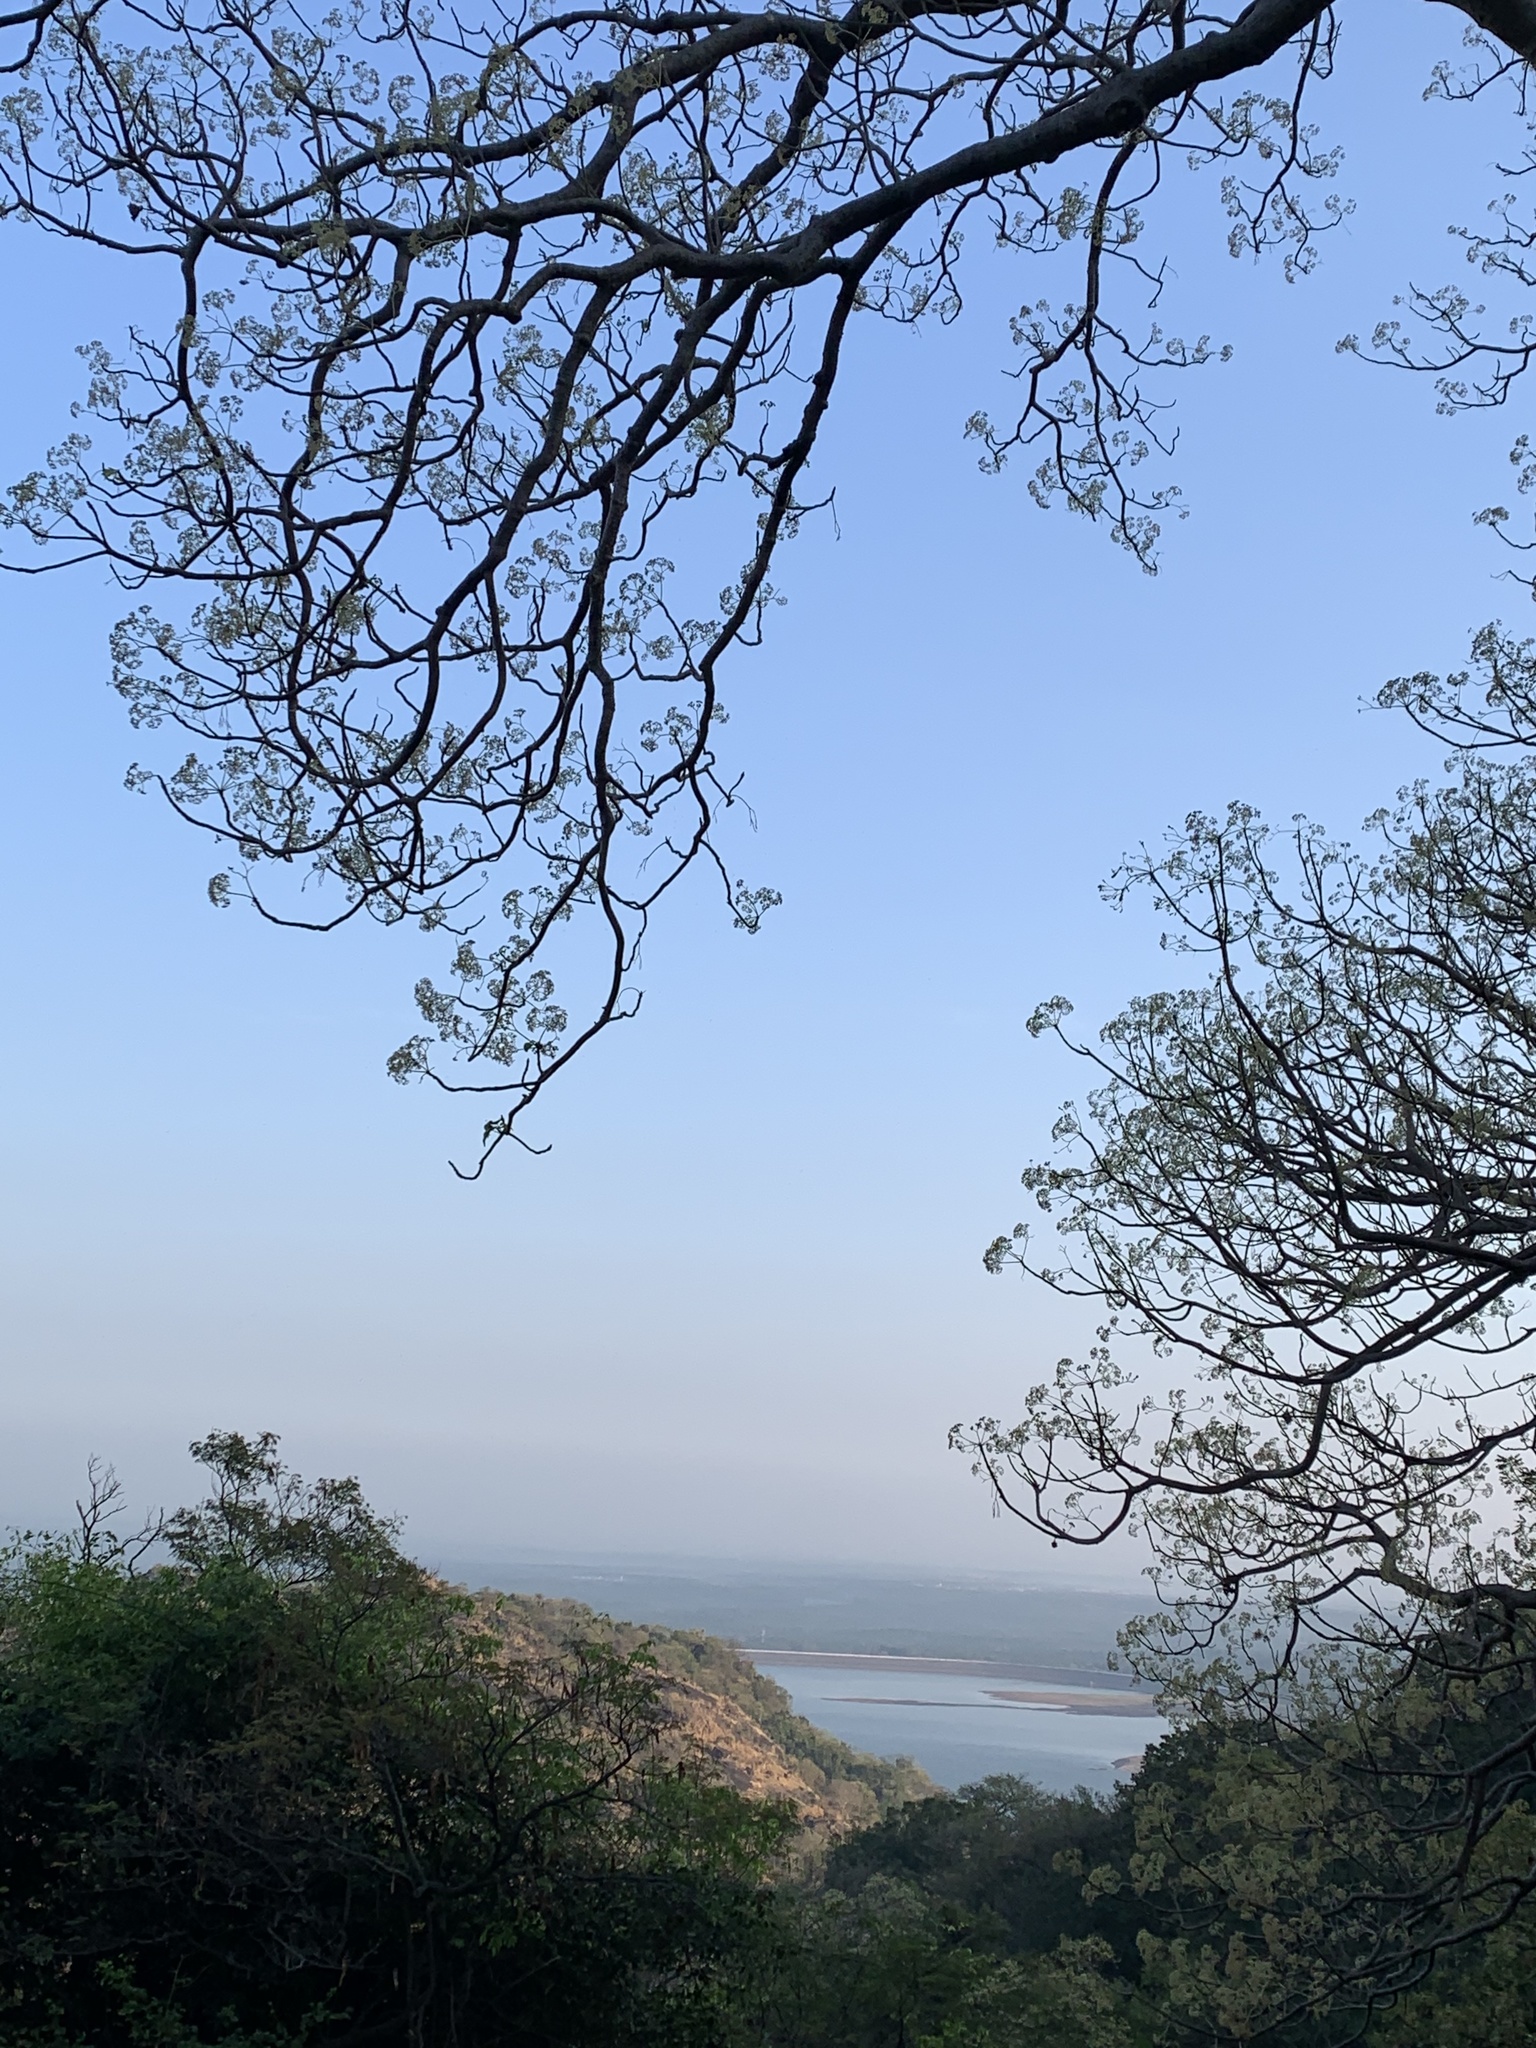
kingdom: Plantae
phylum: Tracheophyta
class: Magnoliopsida
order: Laurales
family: Hernandiaceae
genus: Gyrocarpus
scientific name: Gyrocarpus americanus
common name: Gyro damson
